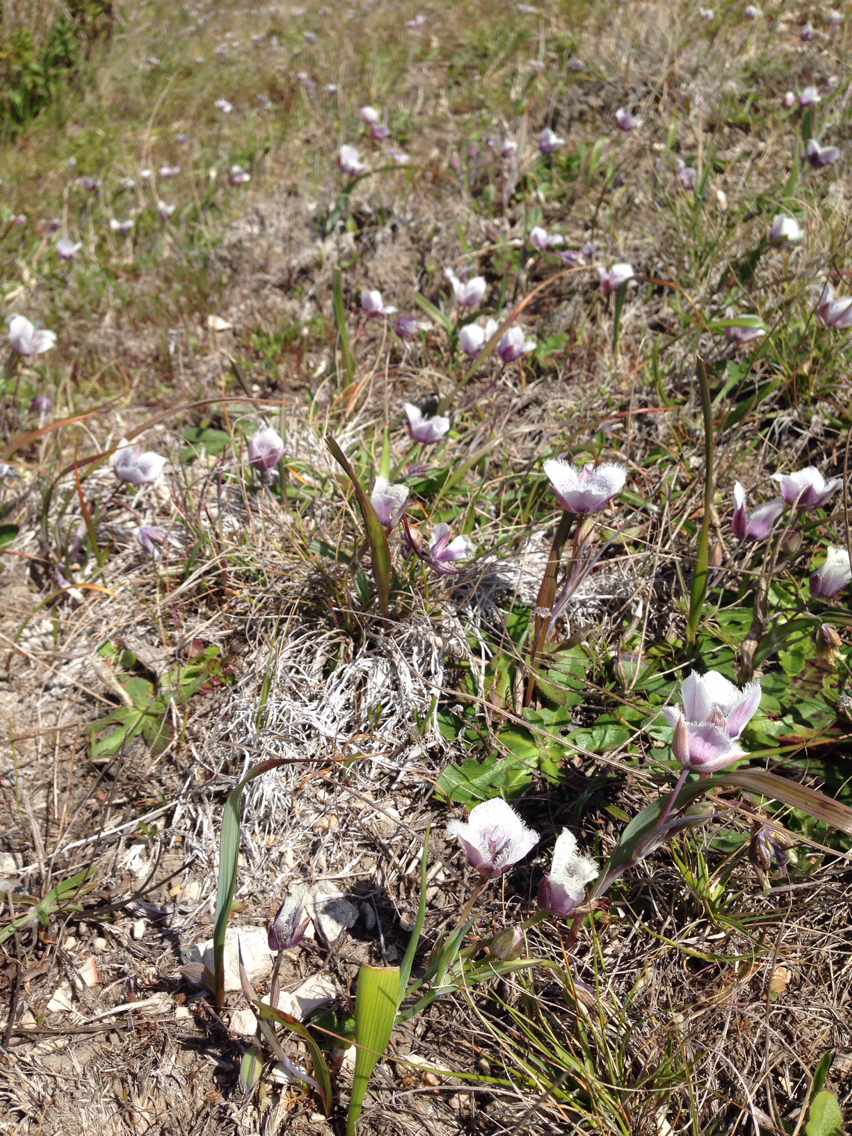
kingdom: Plantae
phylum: Tracheophyta
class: Liliopsida
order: Liliales
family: Liliaceae
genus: Calochortus
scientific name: Calochortus tolmiei
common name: Pussy-ears
